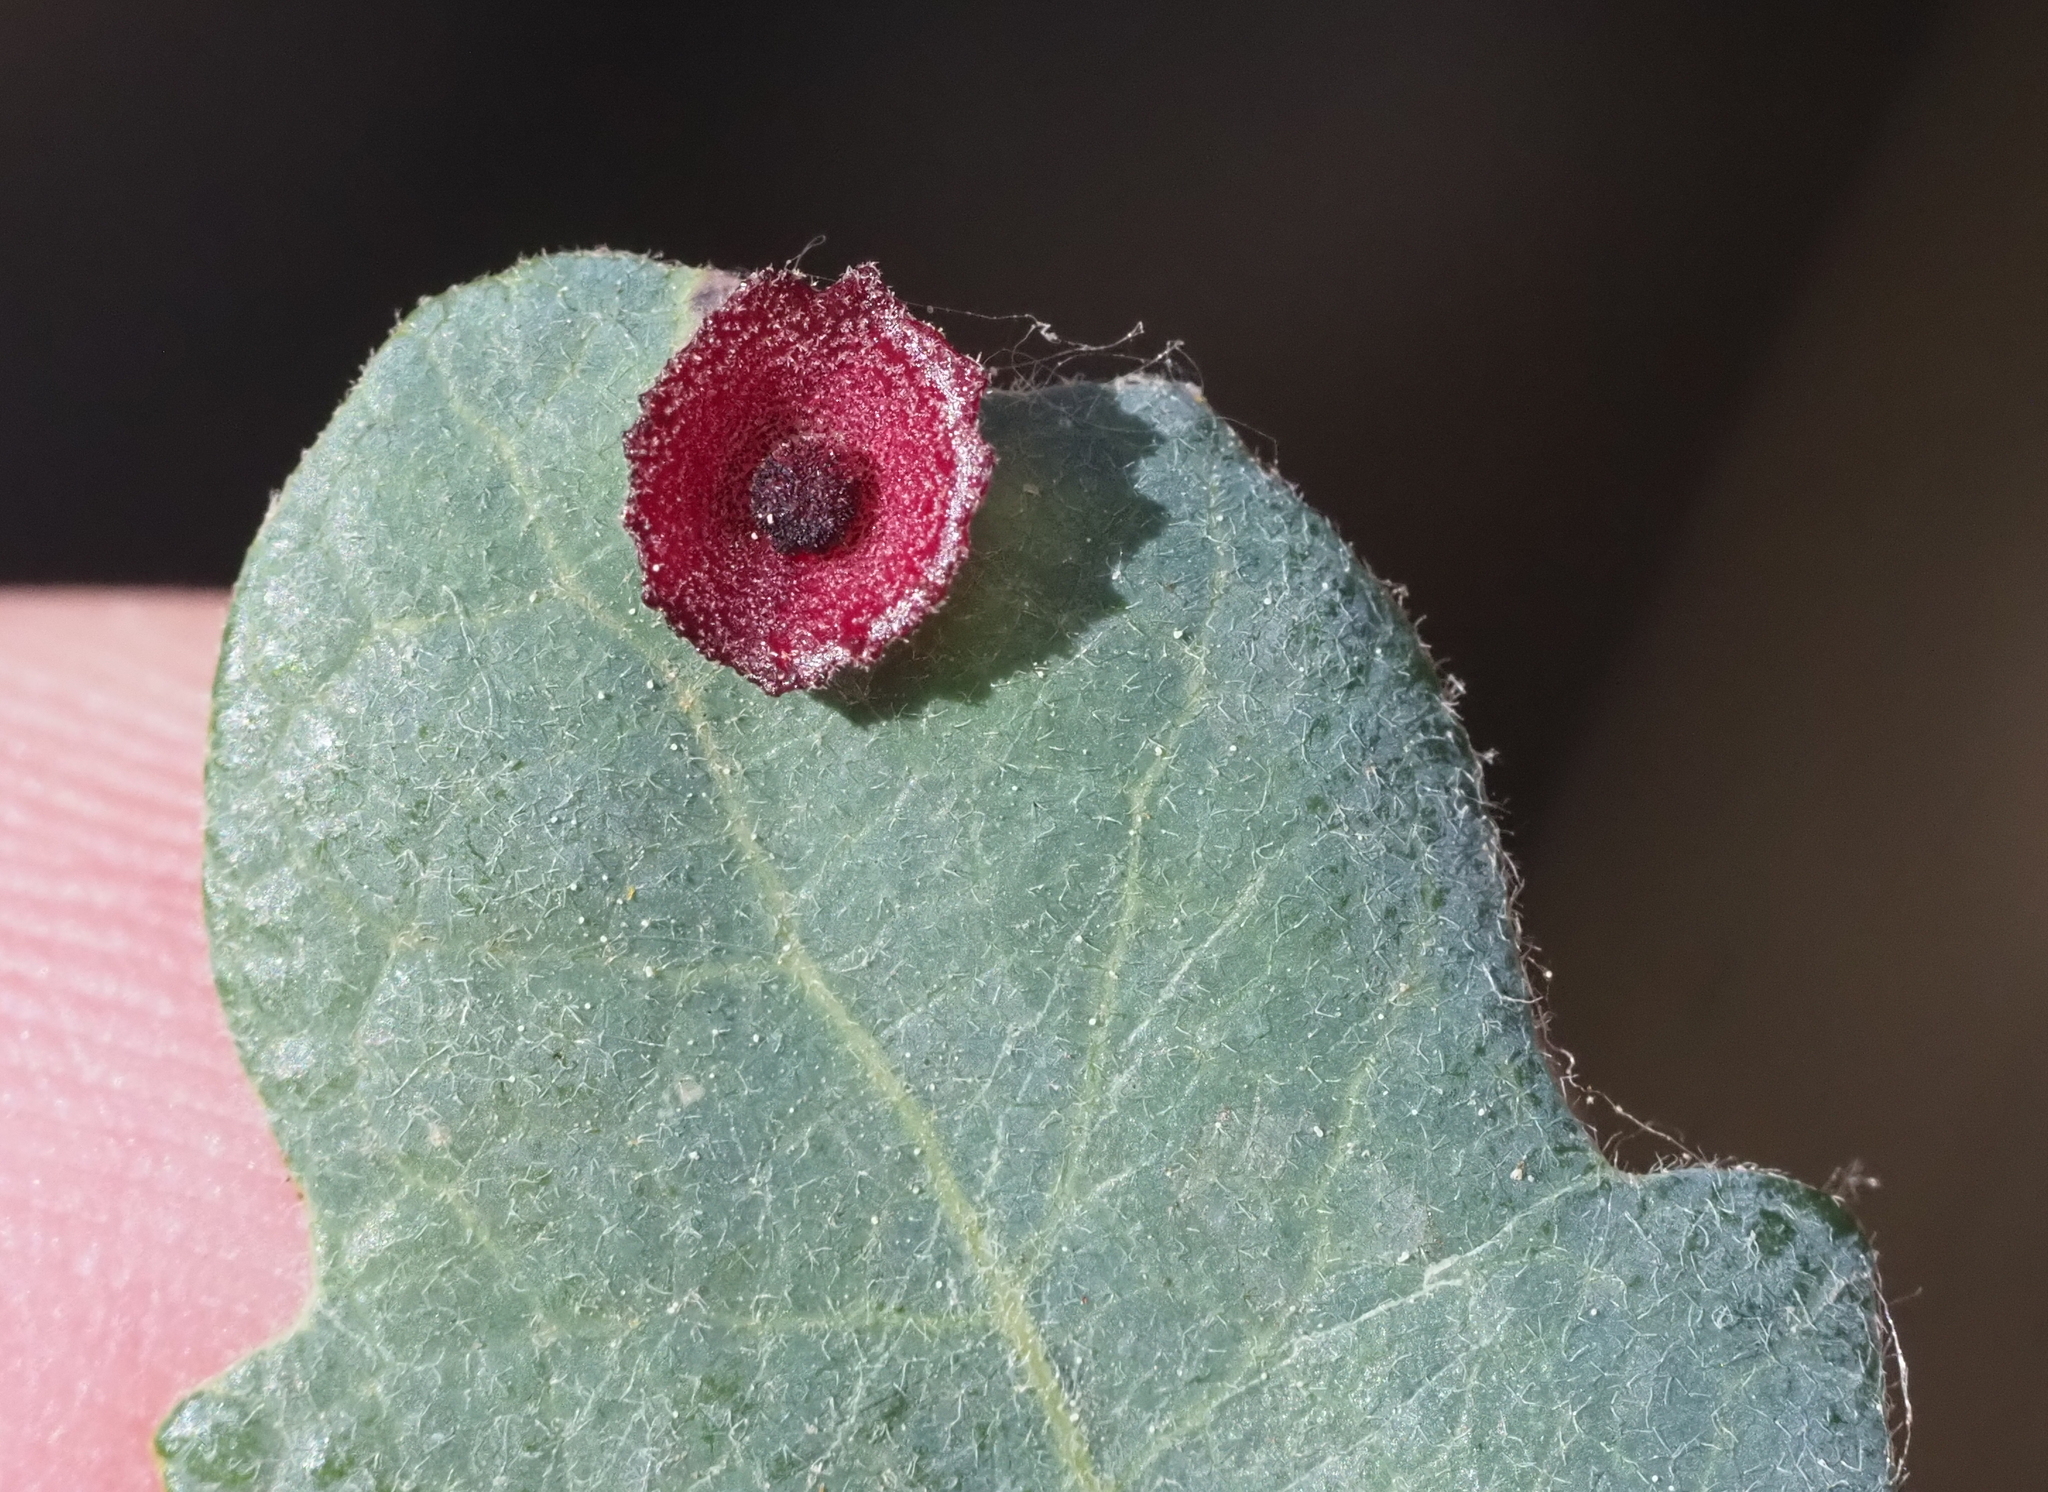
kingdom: Animalia
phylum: Arthropoda
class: Insecta
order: Hymenoptera
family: Cynipidae
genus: Andricus
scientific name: Andricus
